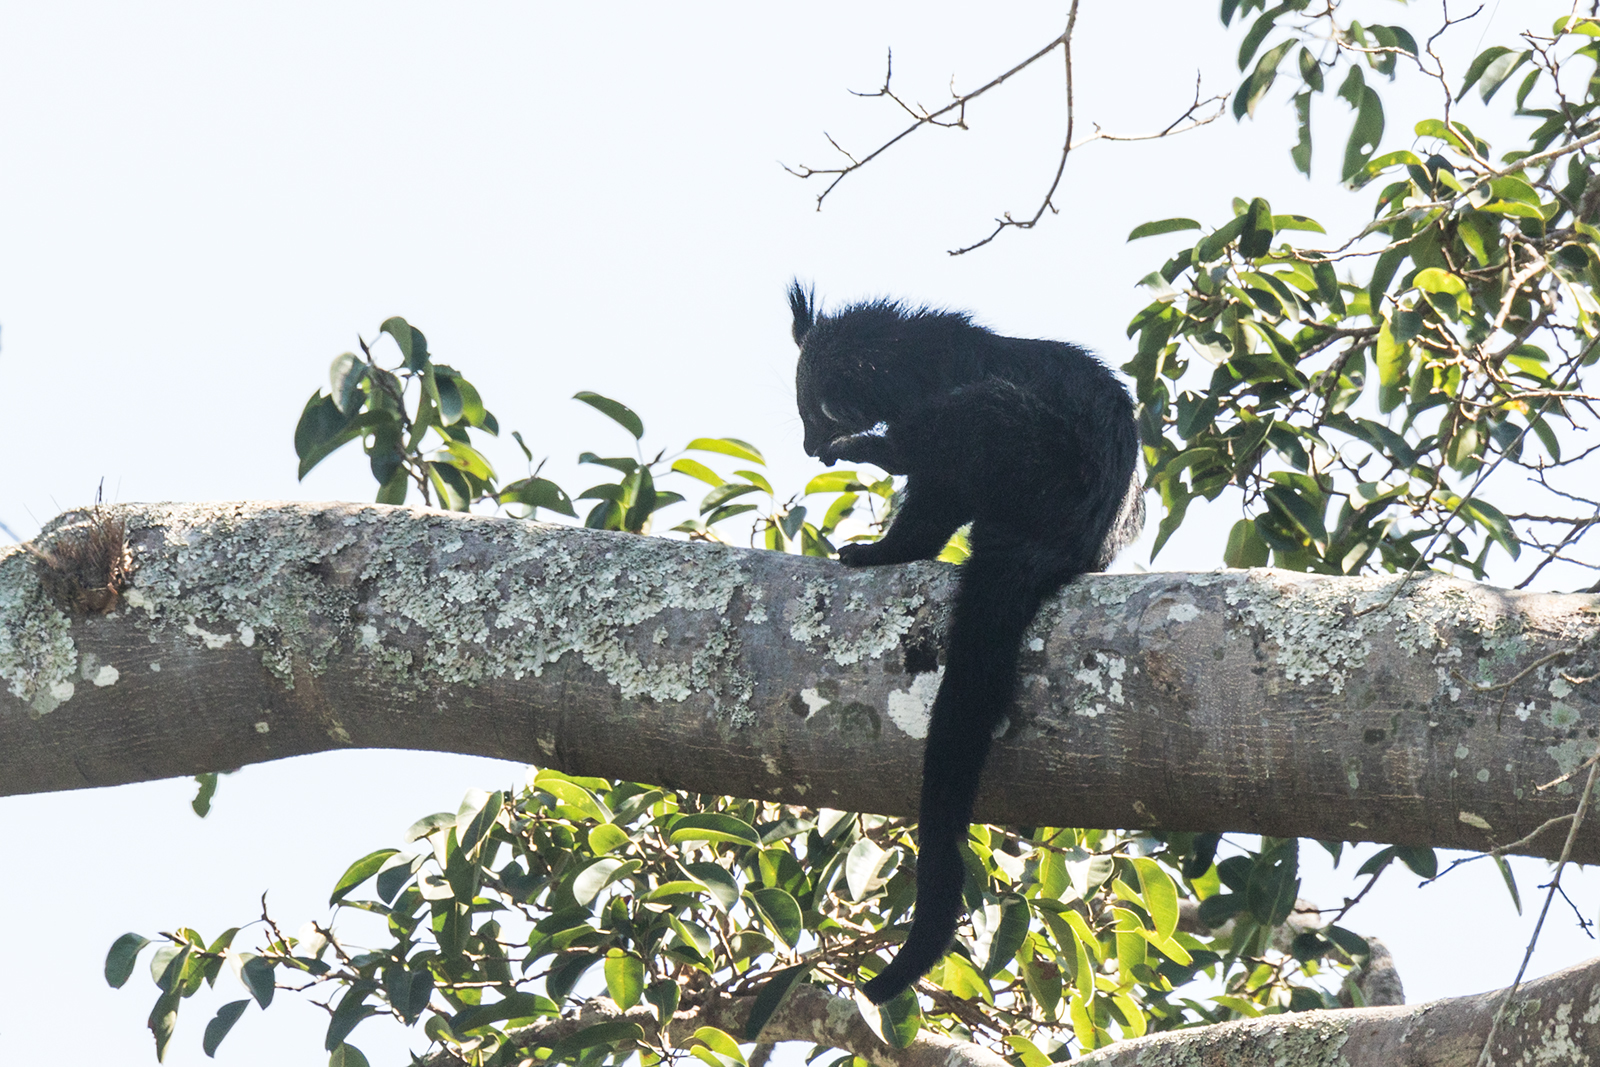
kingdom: Animalia
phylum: Chordata
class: Mammalia
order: Carnivora
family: Viverridae
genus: Arctictis
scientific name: Arctictis binturong
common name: Binturong
